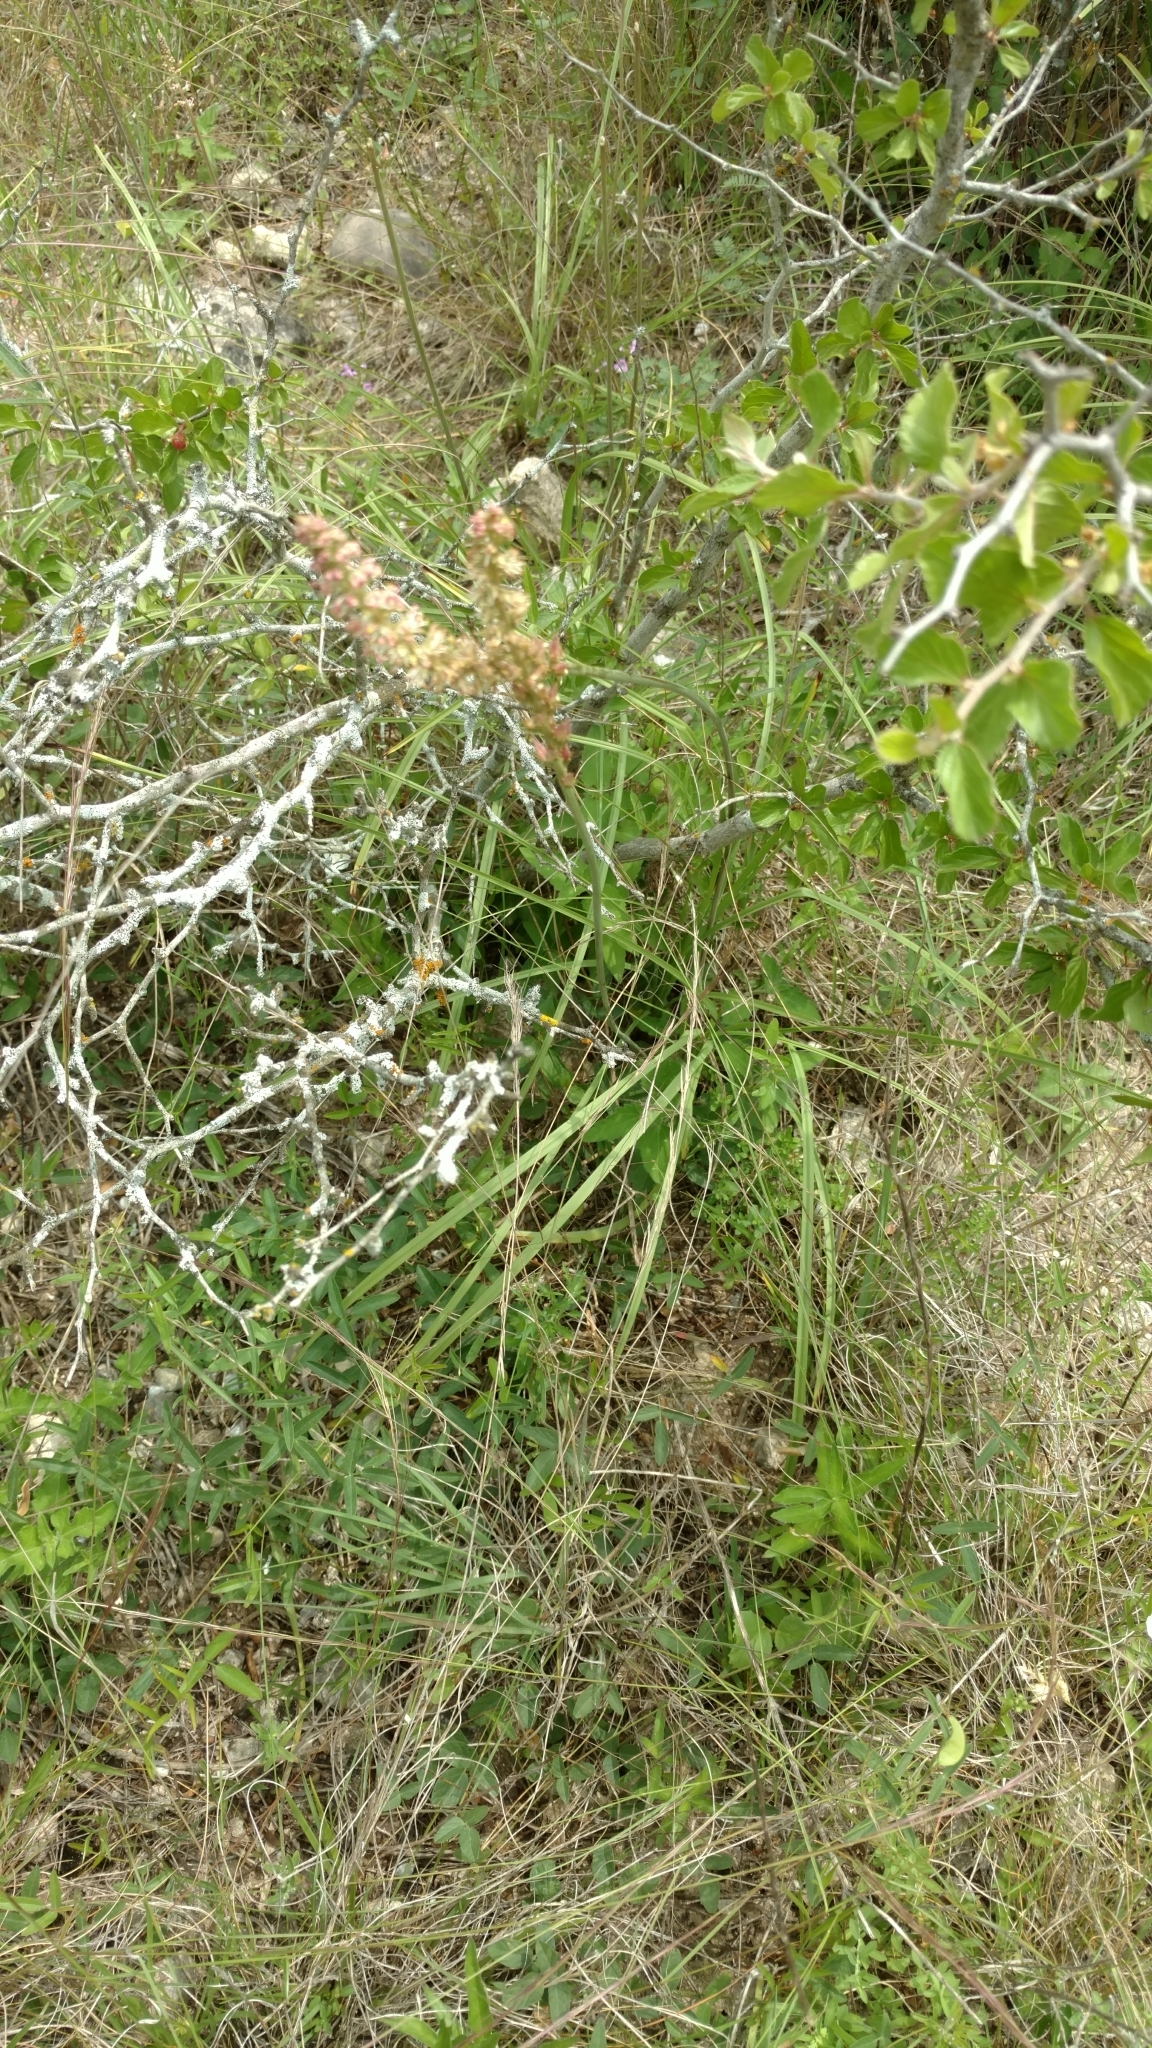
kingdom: Plantae
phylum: Tracheophyta
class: Liliopsida
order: Liliales
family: Melanthiaceae
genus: Schoenocaulon
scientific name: Schoenocaulon texanum
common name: Texas feather-shank
